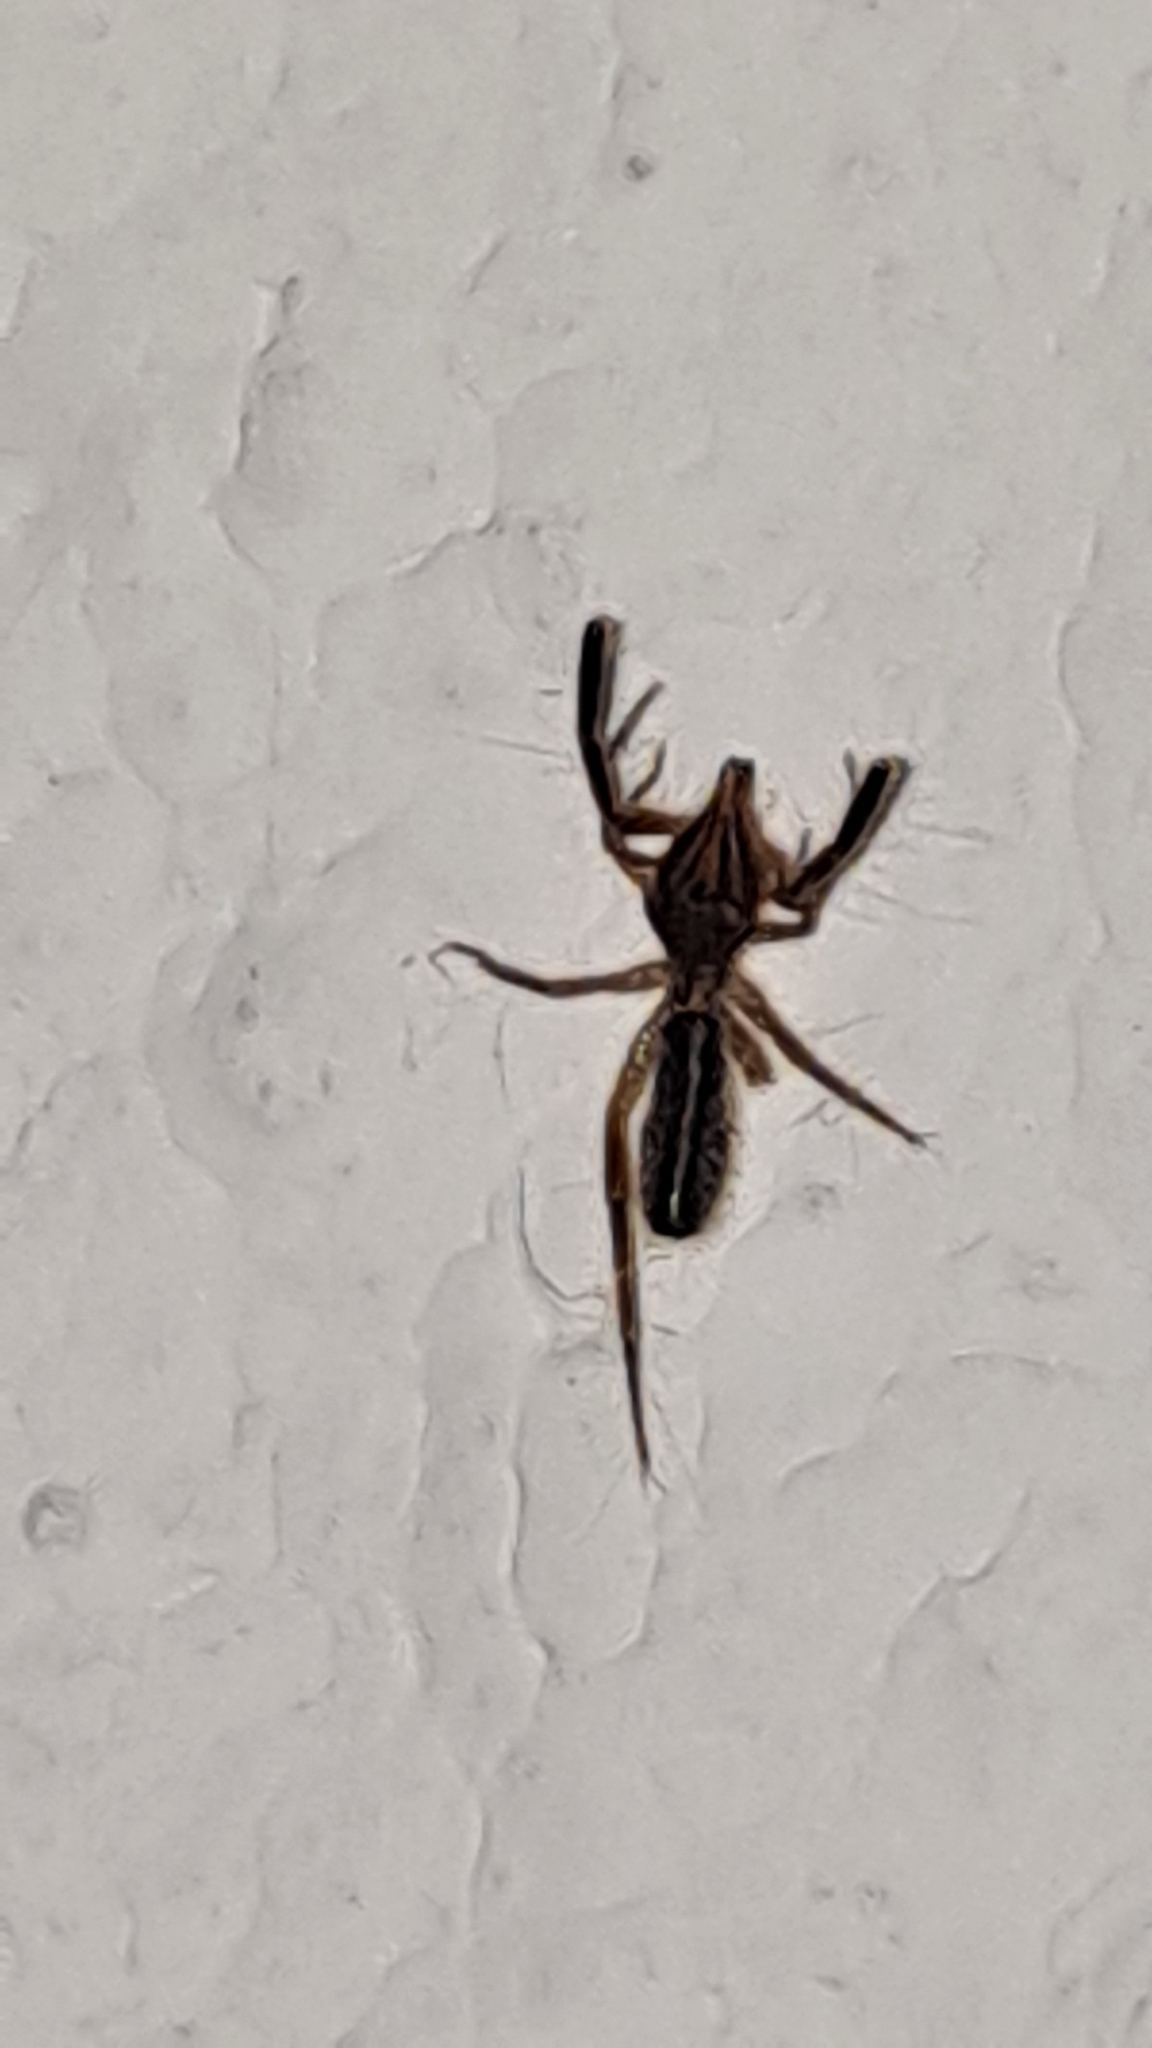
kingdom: Animalia
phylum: Arthropoda
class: Arachnida
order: Solifugae
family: Daesiidae
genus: Gluvia
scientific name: Gluvia dorsalis
